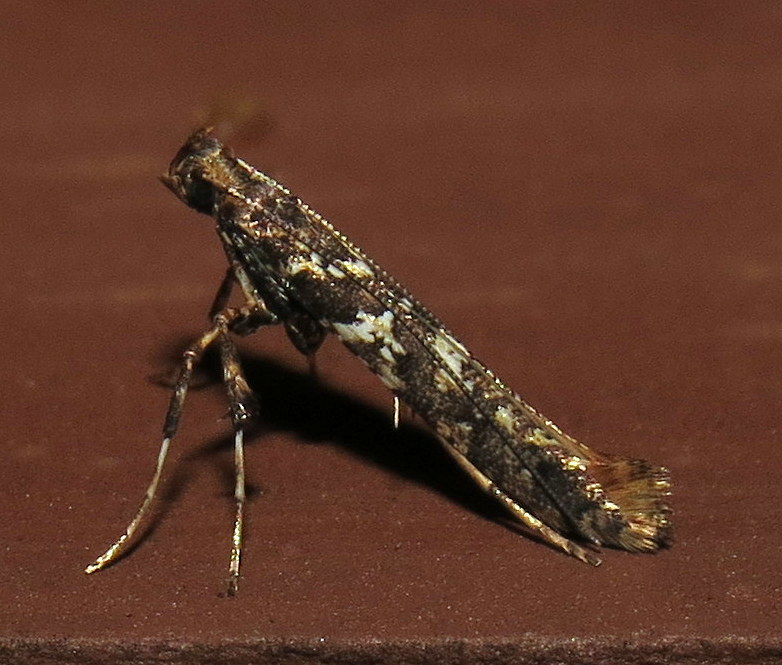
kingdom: Animalia
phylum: Arthropoda
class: Insecta
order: Lepidoptera
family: Gracillariidae
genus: Caloptilia
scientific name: Caloptilia serotinella
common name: Cherry leafroller moth
